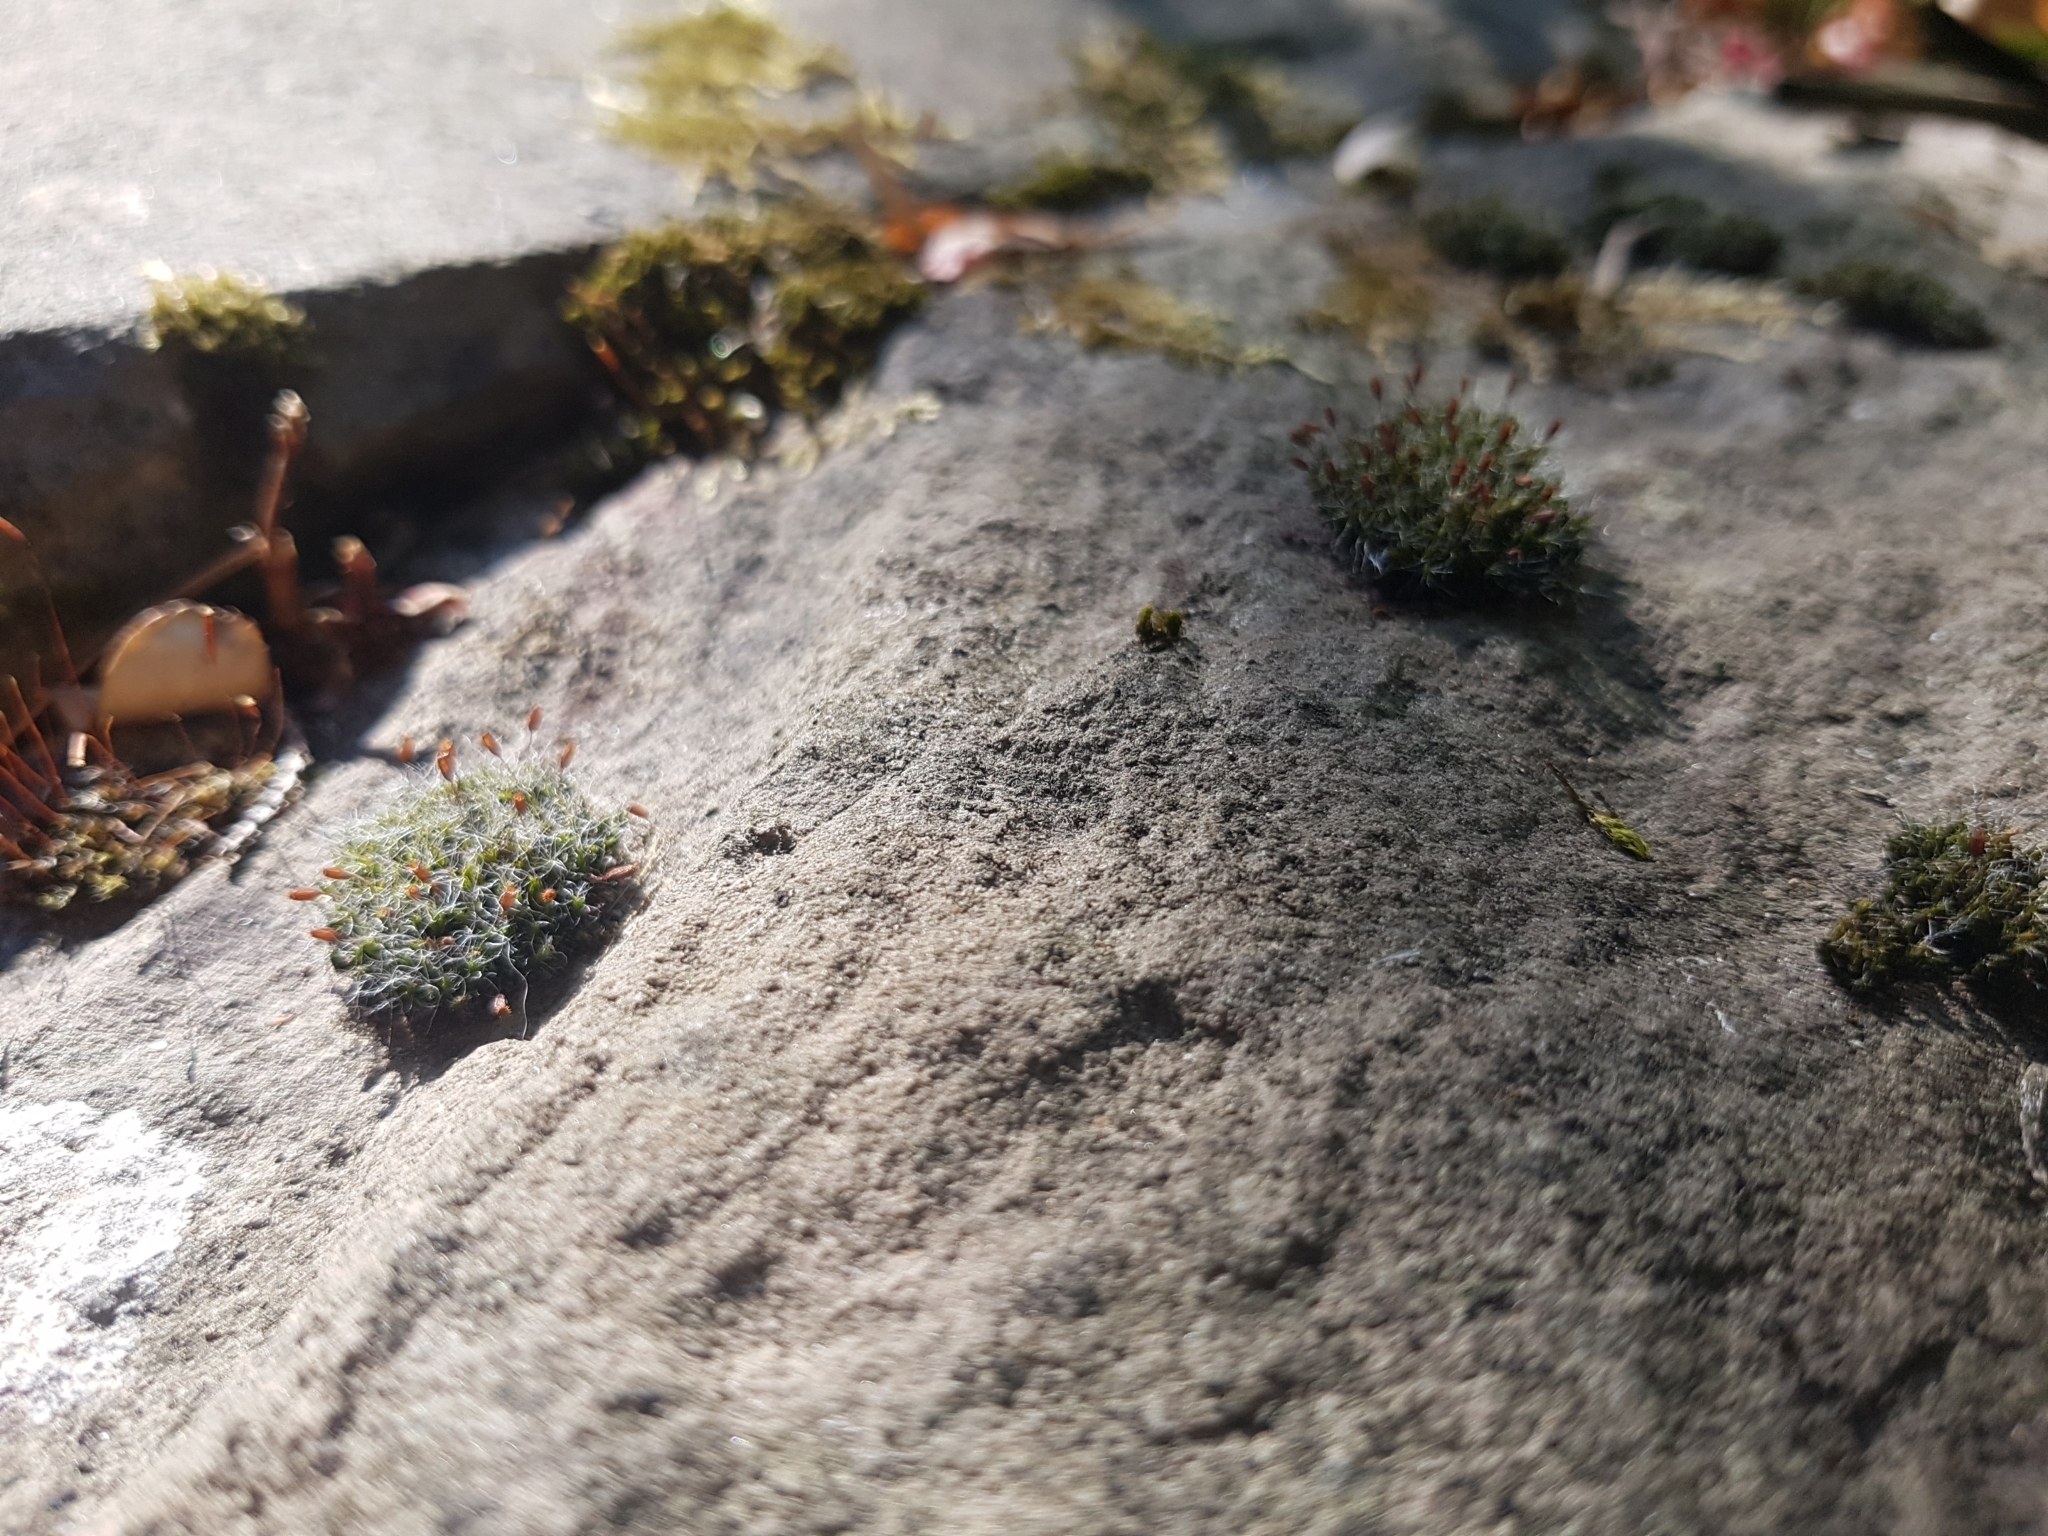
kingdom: Plantae
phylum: Bryophyta
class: Bryopsida
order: Grimmiales
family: Grimmiaceae
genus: Grimmia
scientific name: Grimmia pulvinata
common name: Grey-cushioned grimmia
